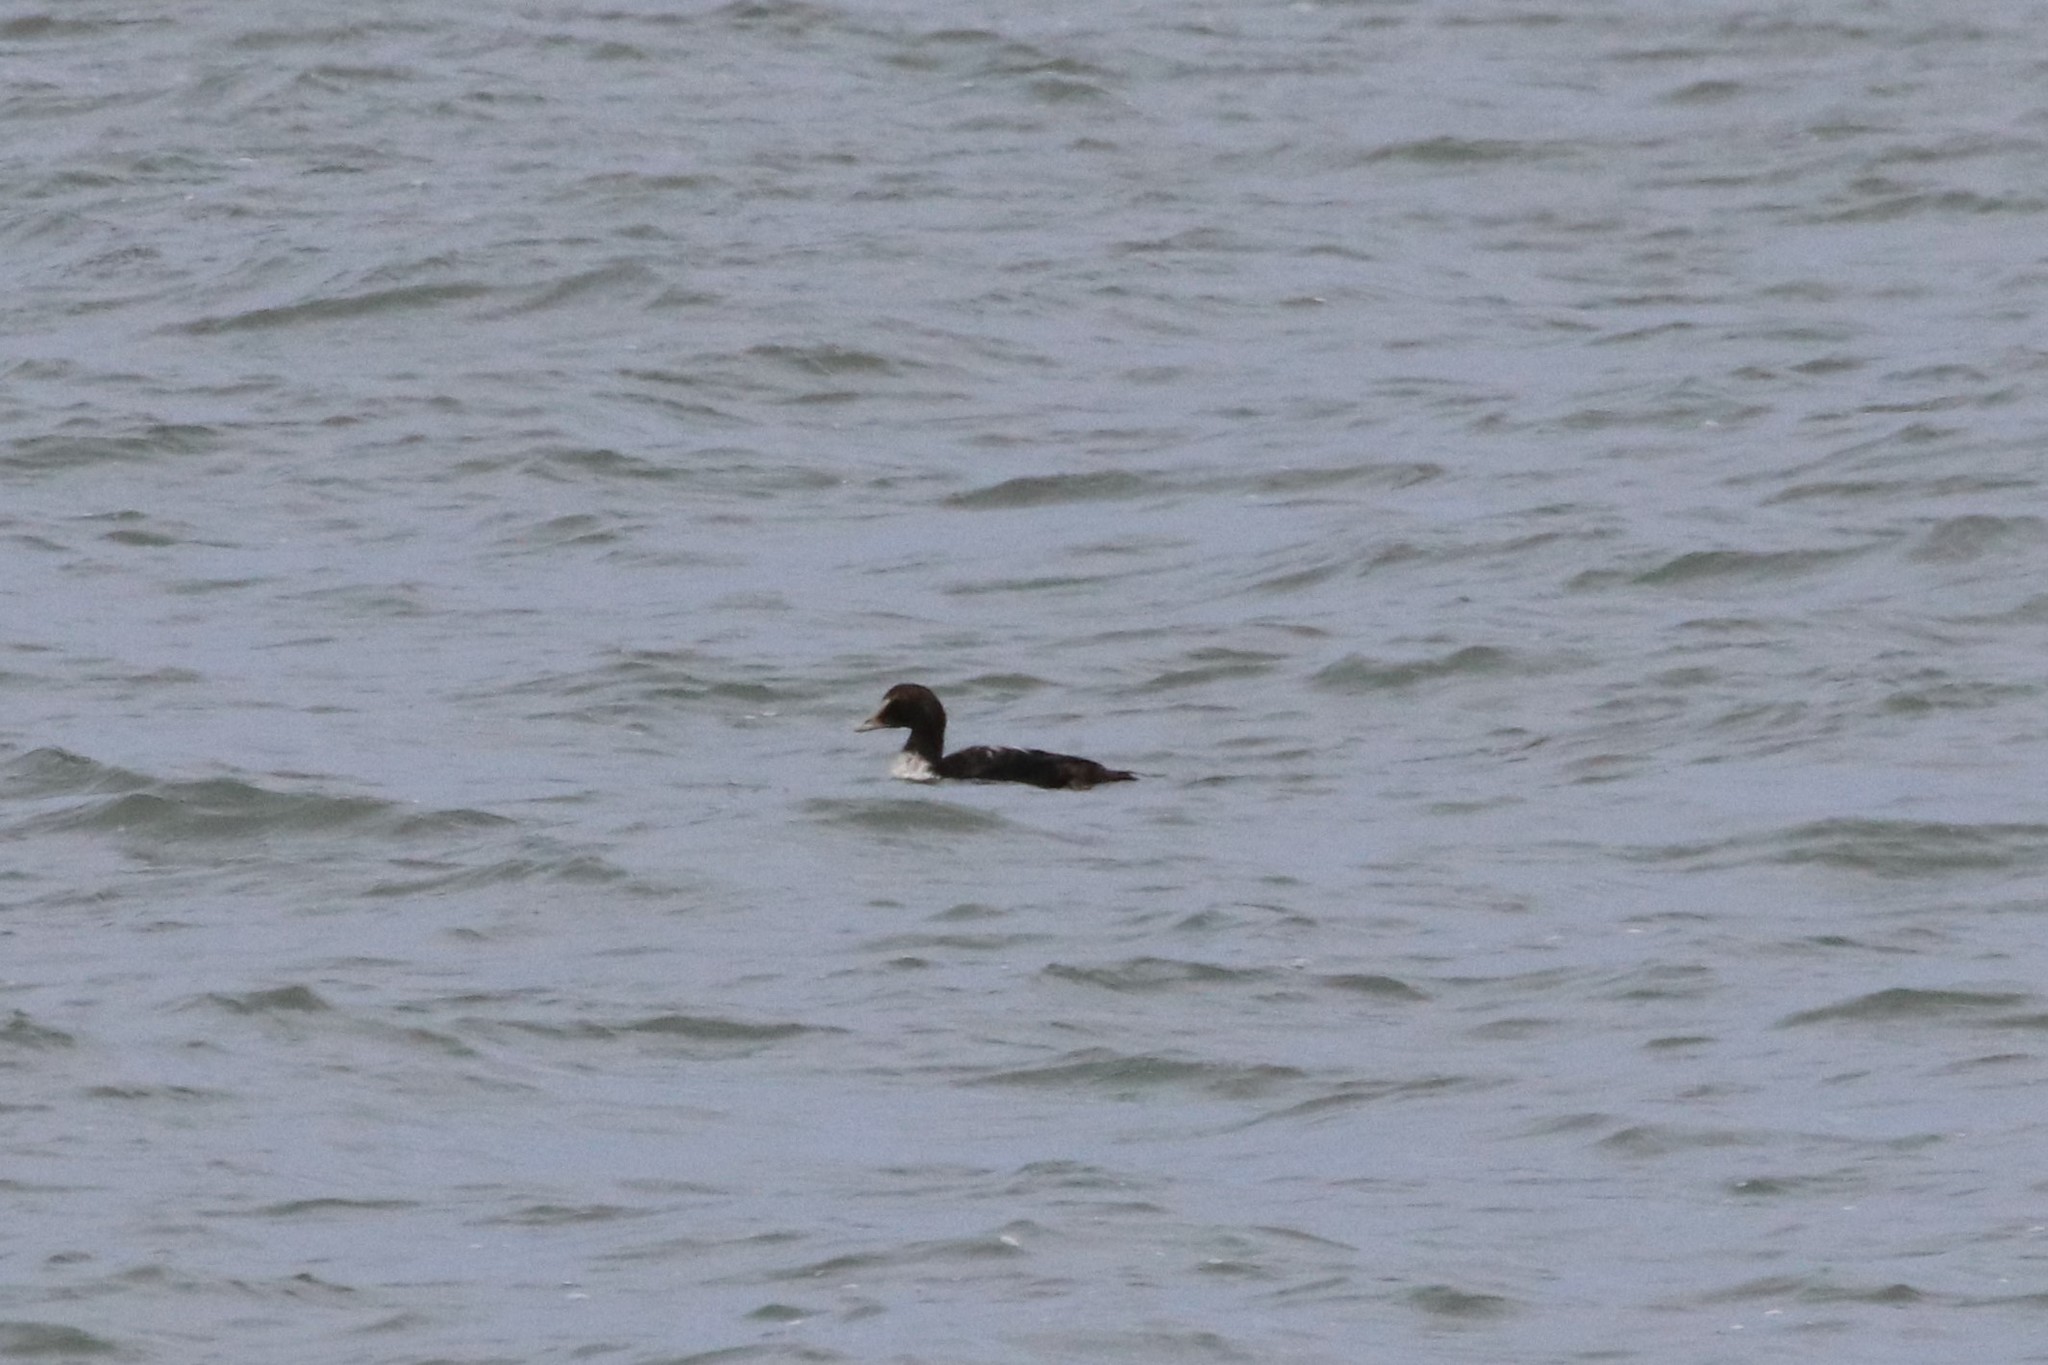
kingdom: Animalia
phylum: Chordata
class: Aves
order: Anseriformes
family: Anatidae
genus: Somateria
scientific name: Somateria mollissima
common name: Common eider
